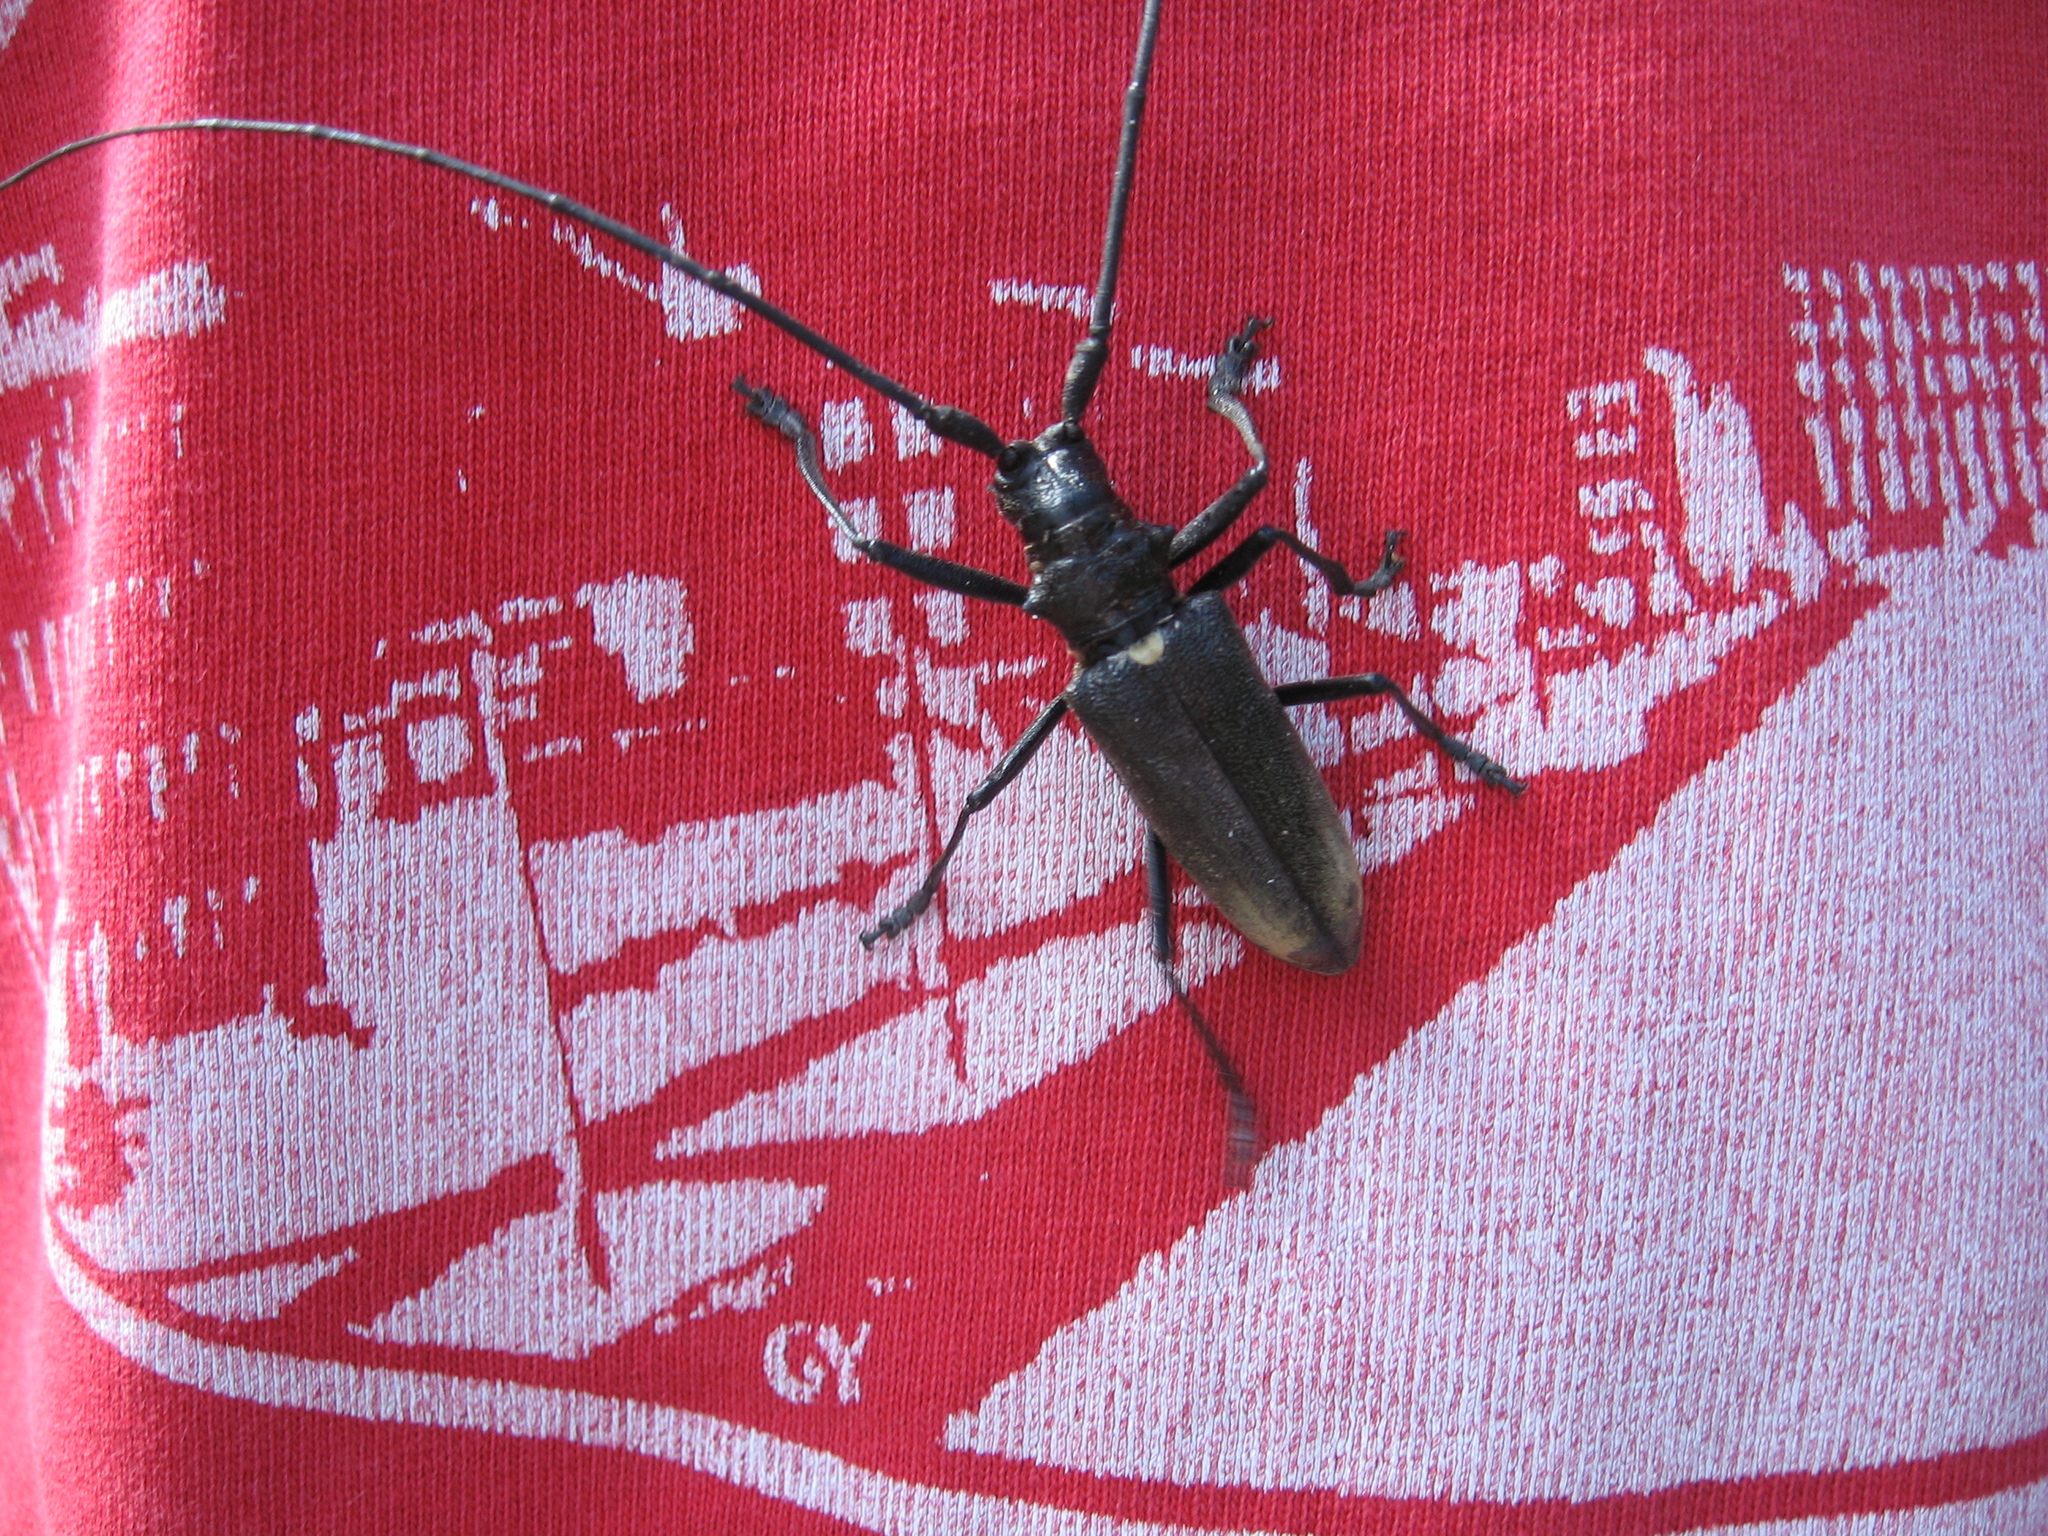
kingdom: Animalia
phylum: Arthropoda
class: Insecta
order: Coleoptera
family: Cerambycidae
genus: Monochamus
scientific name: Monochamus urussovii
